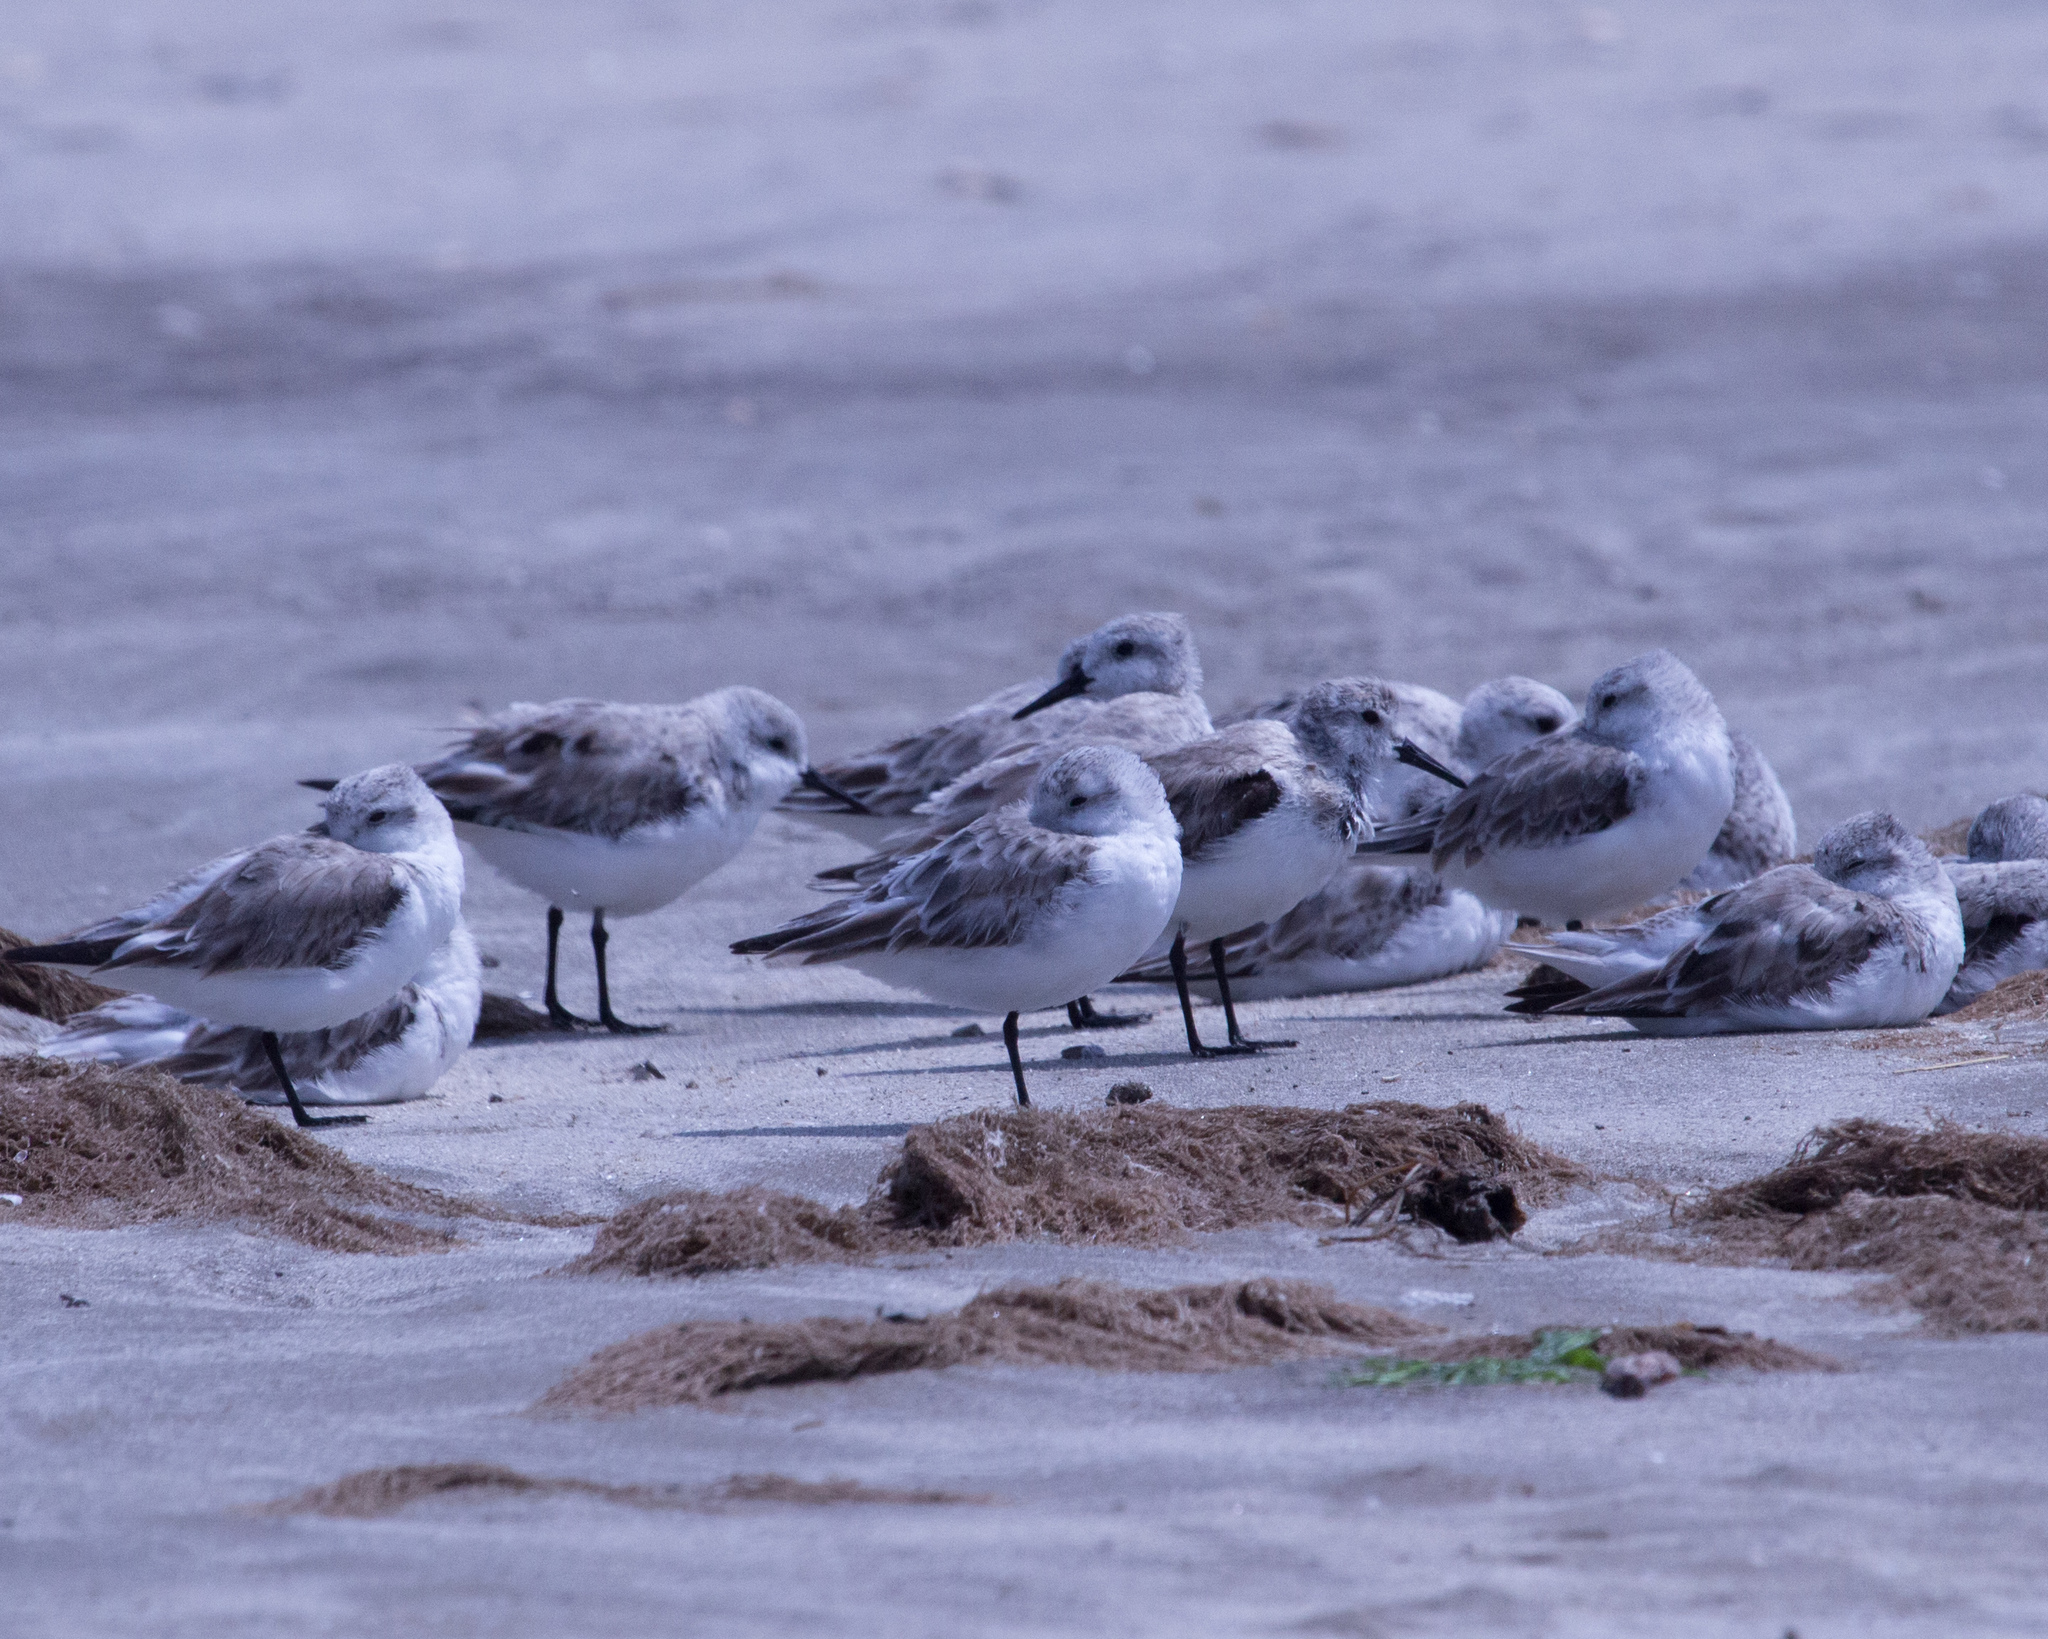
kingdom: Animalia
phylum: Chordata
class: Aves
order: Charadriiformes
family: Scolopacidae
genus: Calidris
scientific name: Calidris alba
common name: Sanderling
